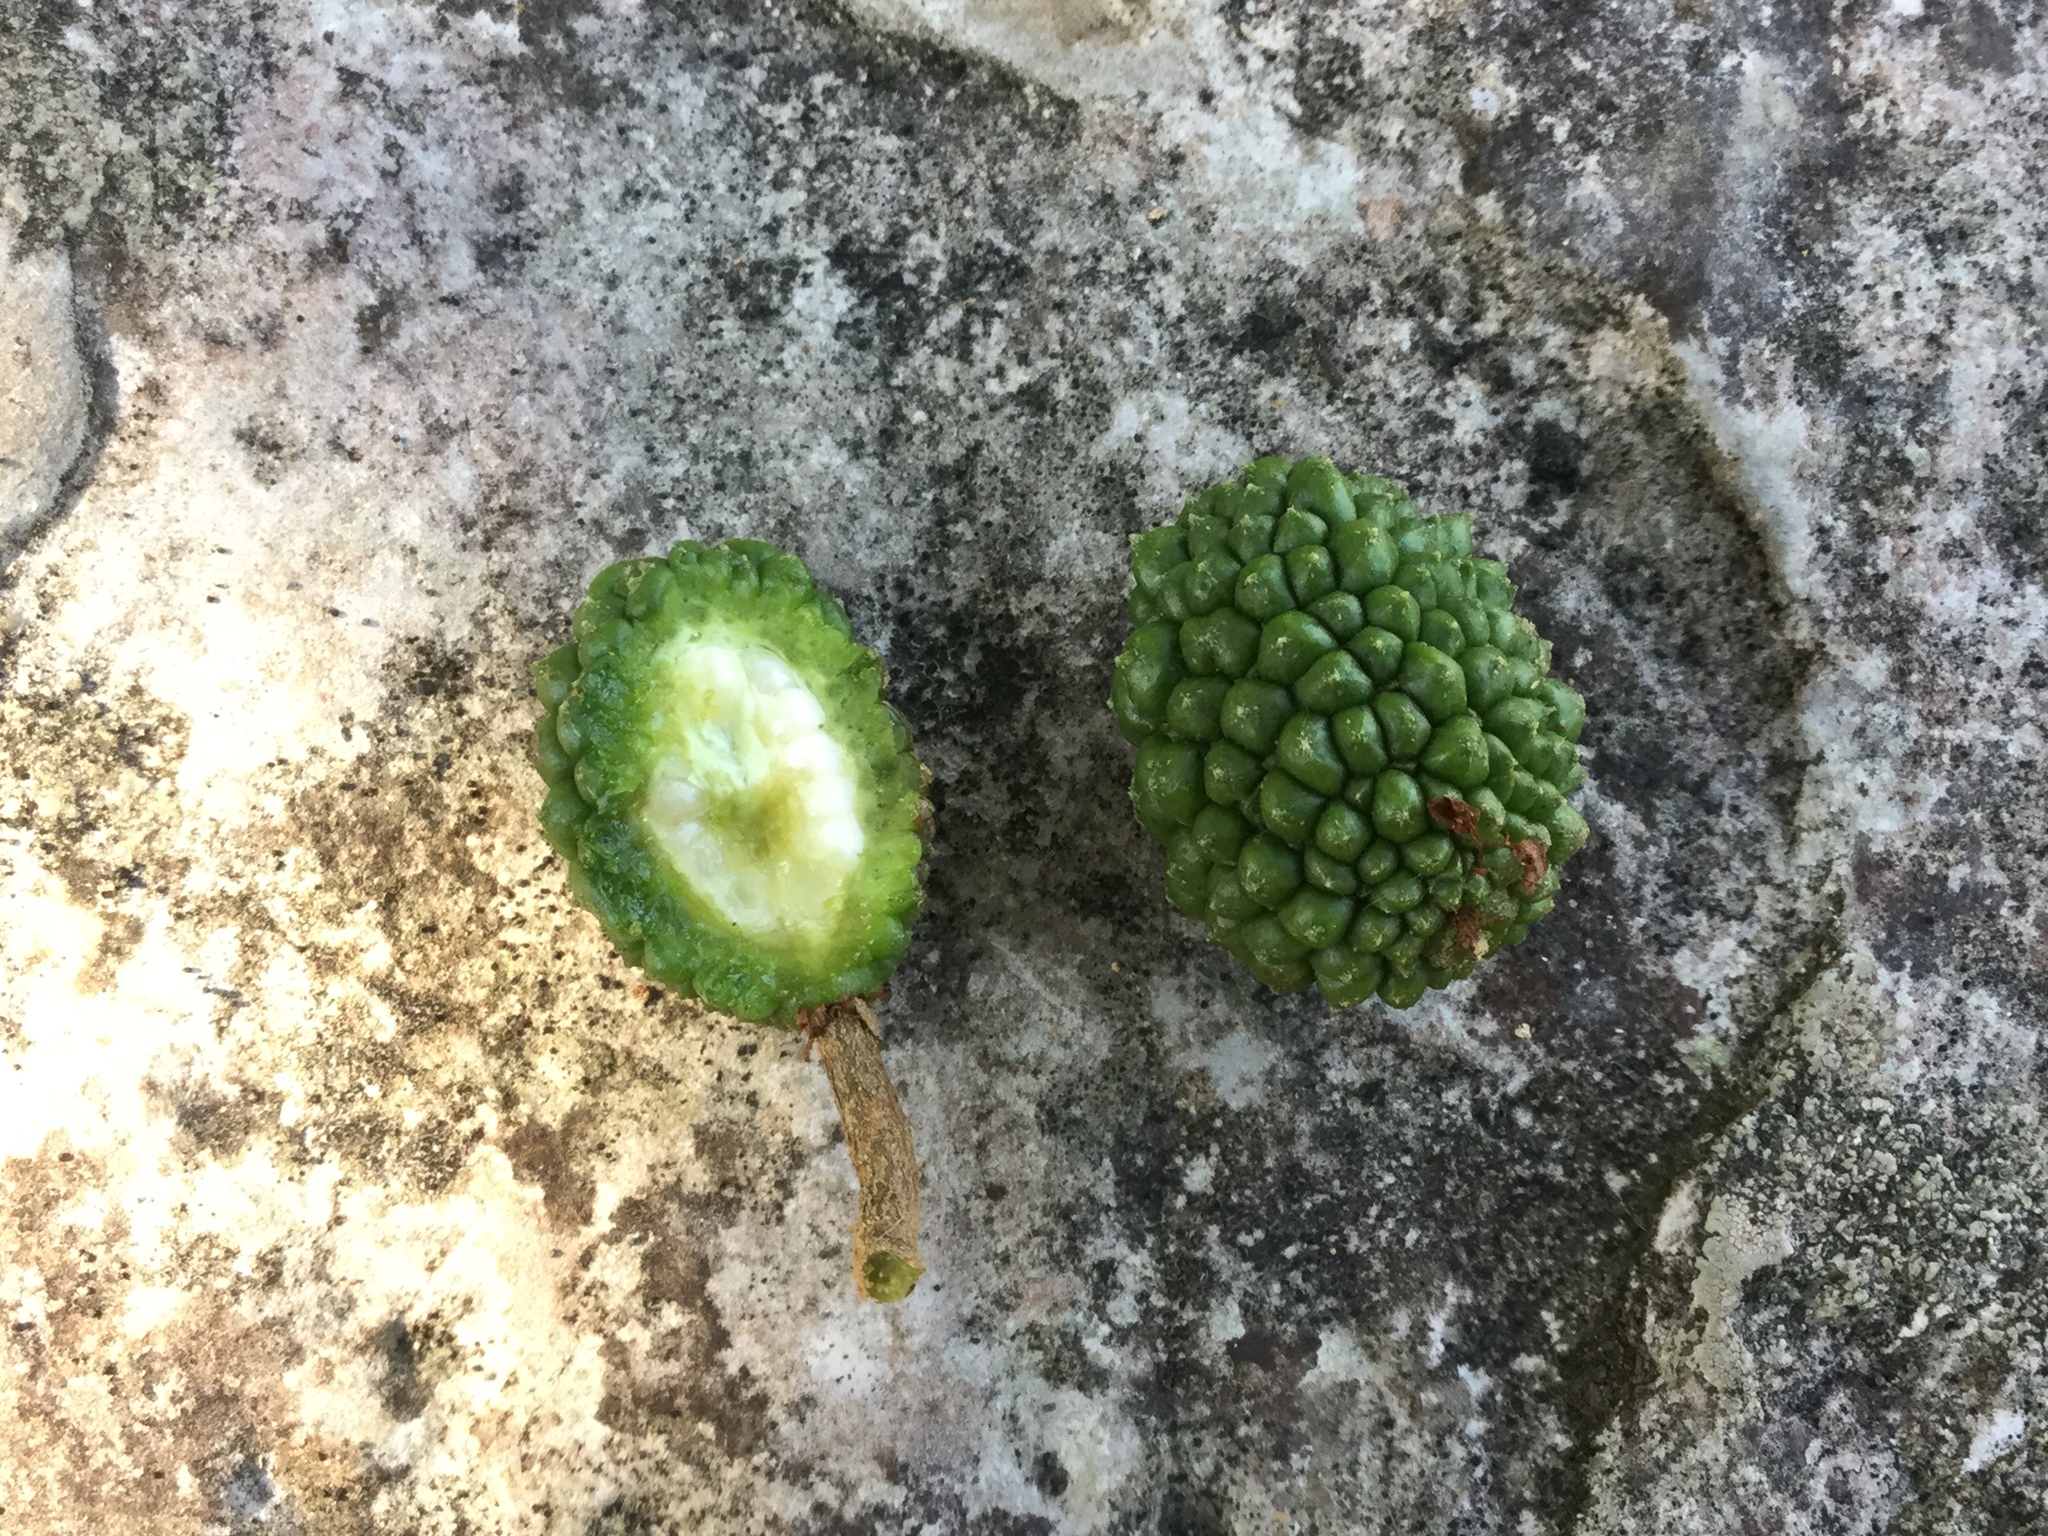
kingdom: Plantae
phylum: Tracheophyta
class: Magnoliopsida
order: Malvales
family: Malvaceae
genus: Guazuma
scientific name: Guazuma ulmifolia
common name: Bastard-cedar
